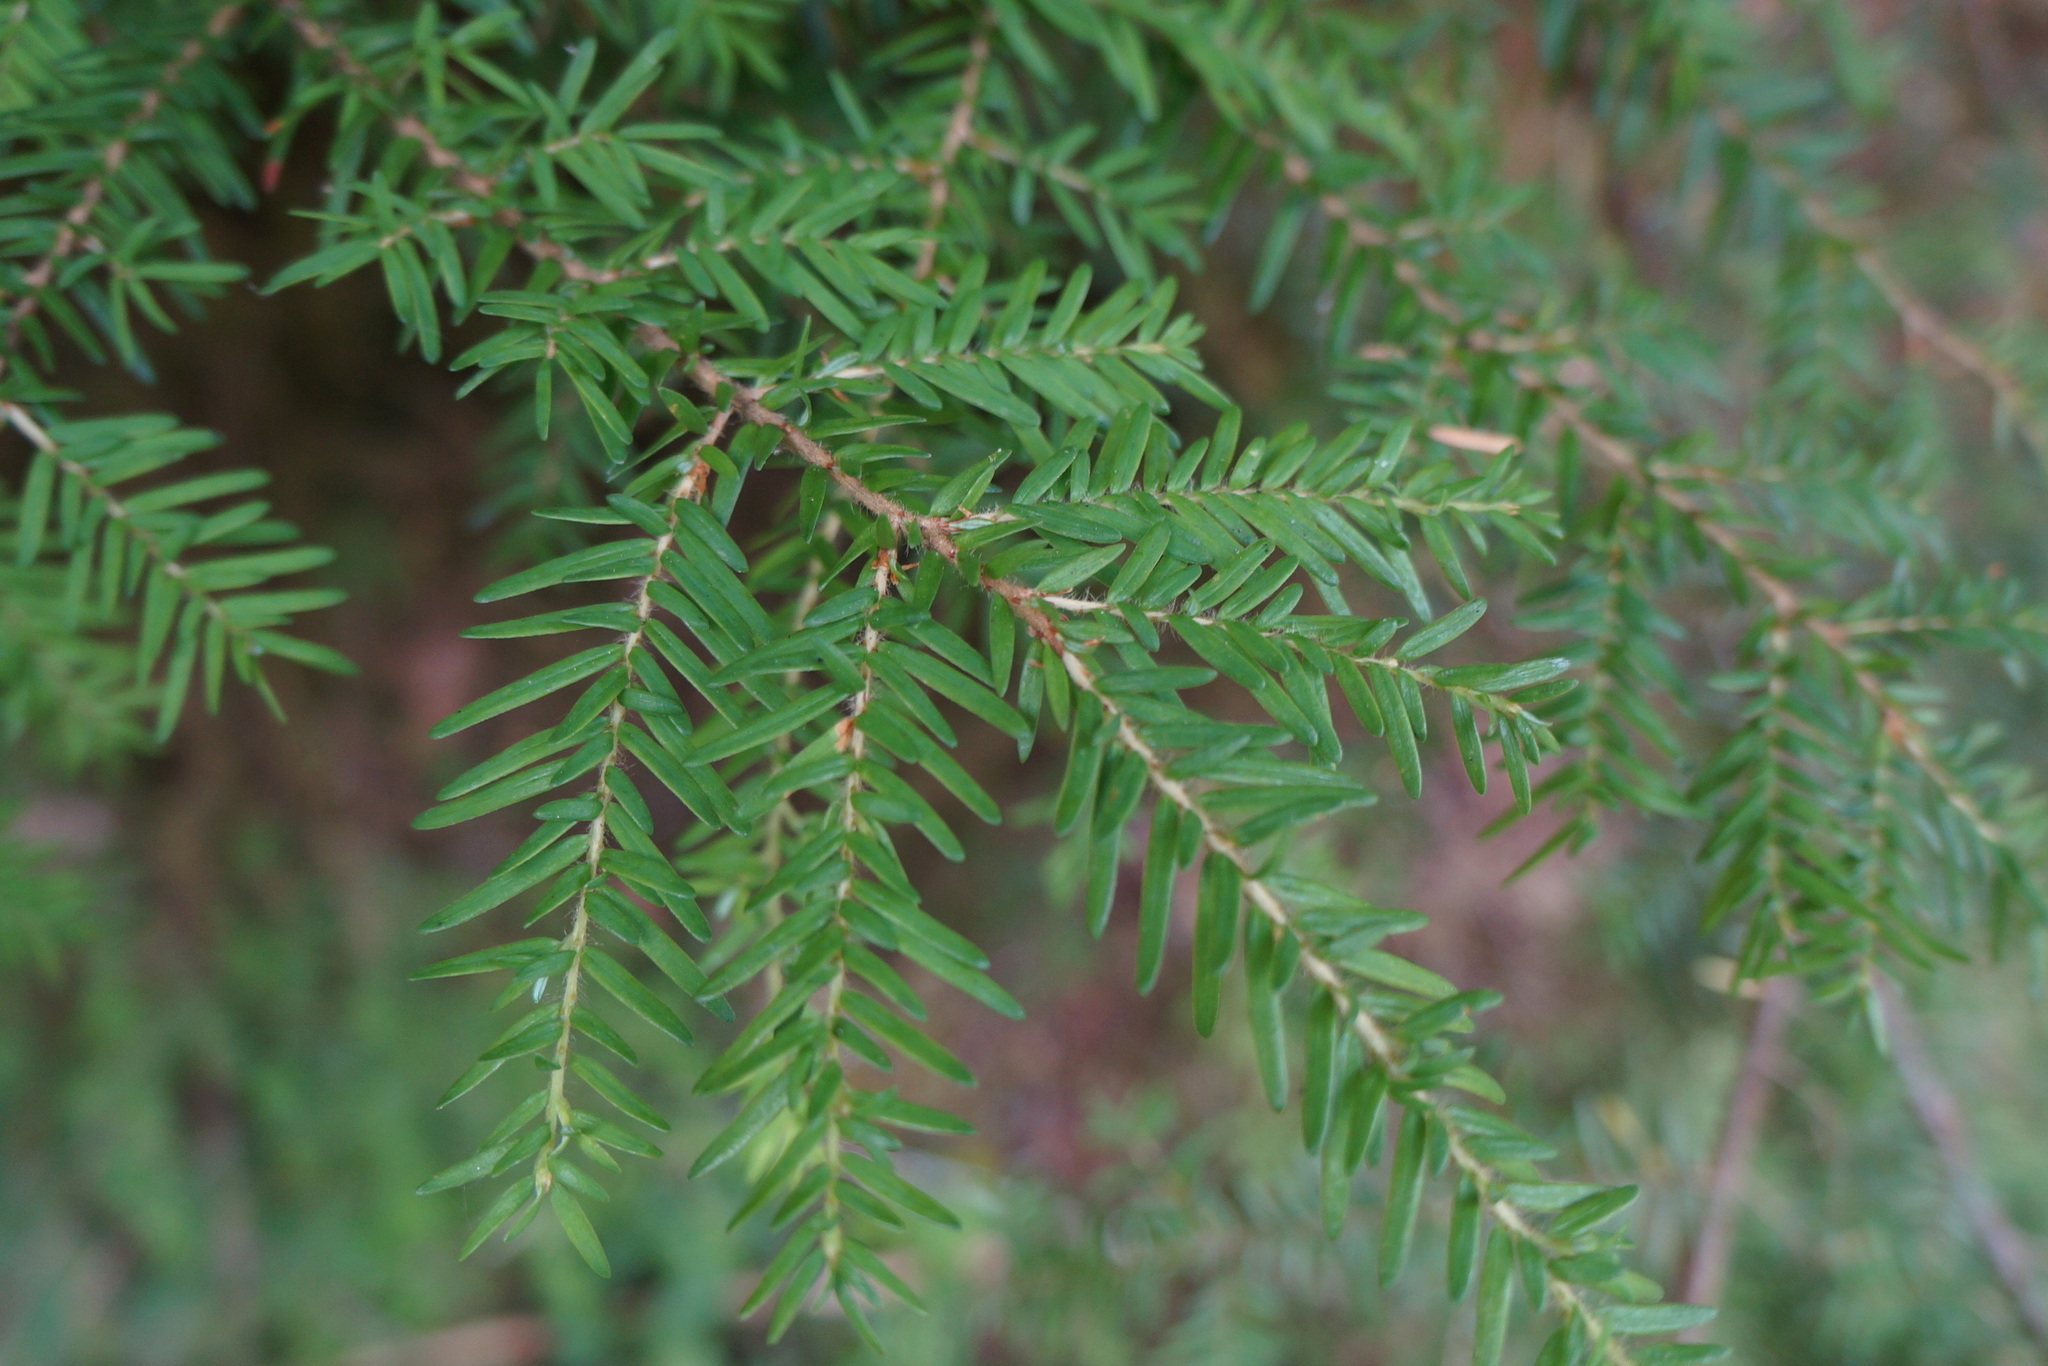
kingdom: Plantae
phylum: Tracheophyta
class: Pinopsida
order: Pinales
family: Pinaceae
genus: Tsuga
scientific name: Tsuga heterophylla
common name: Western hemlock
